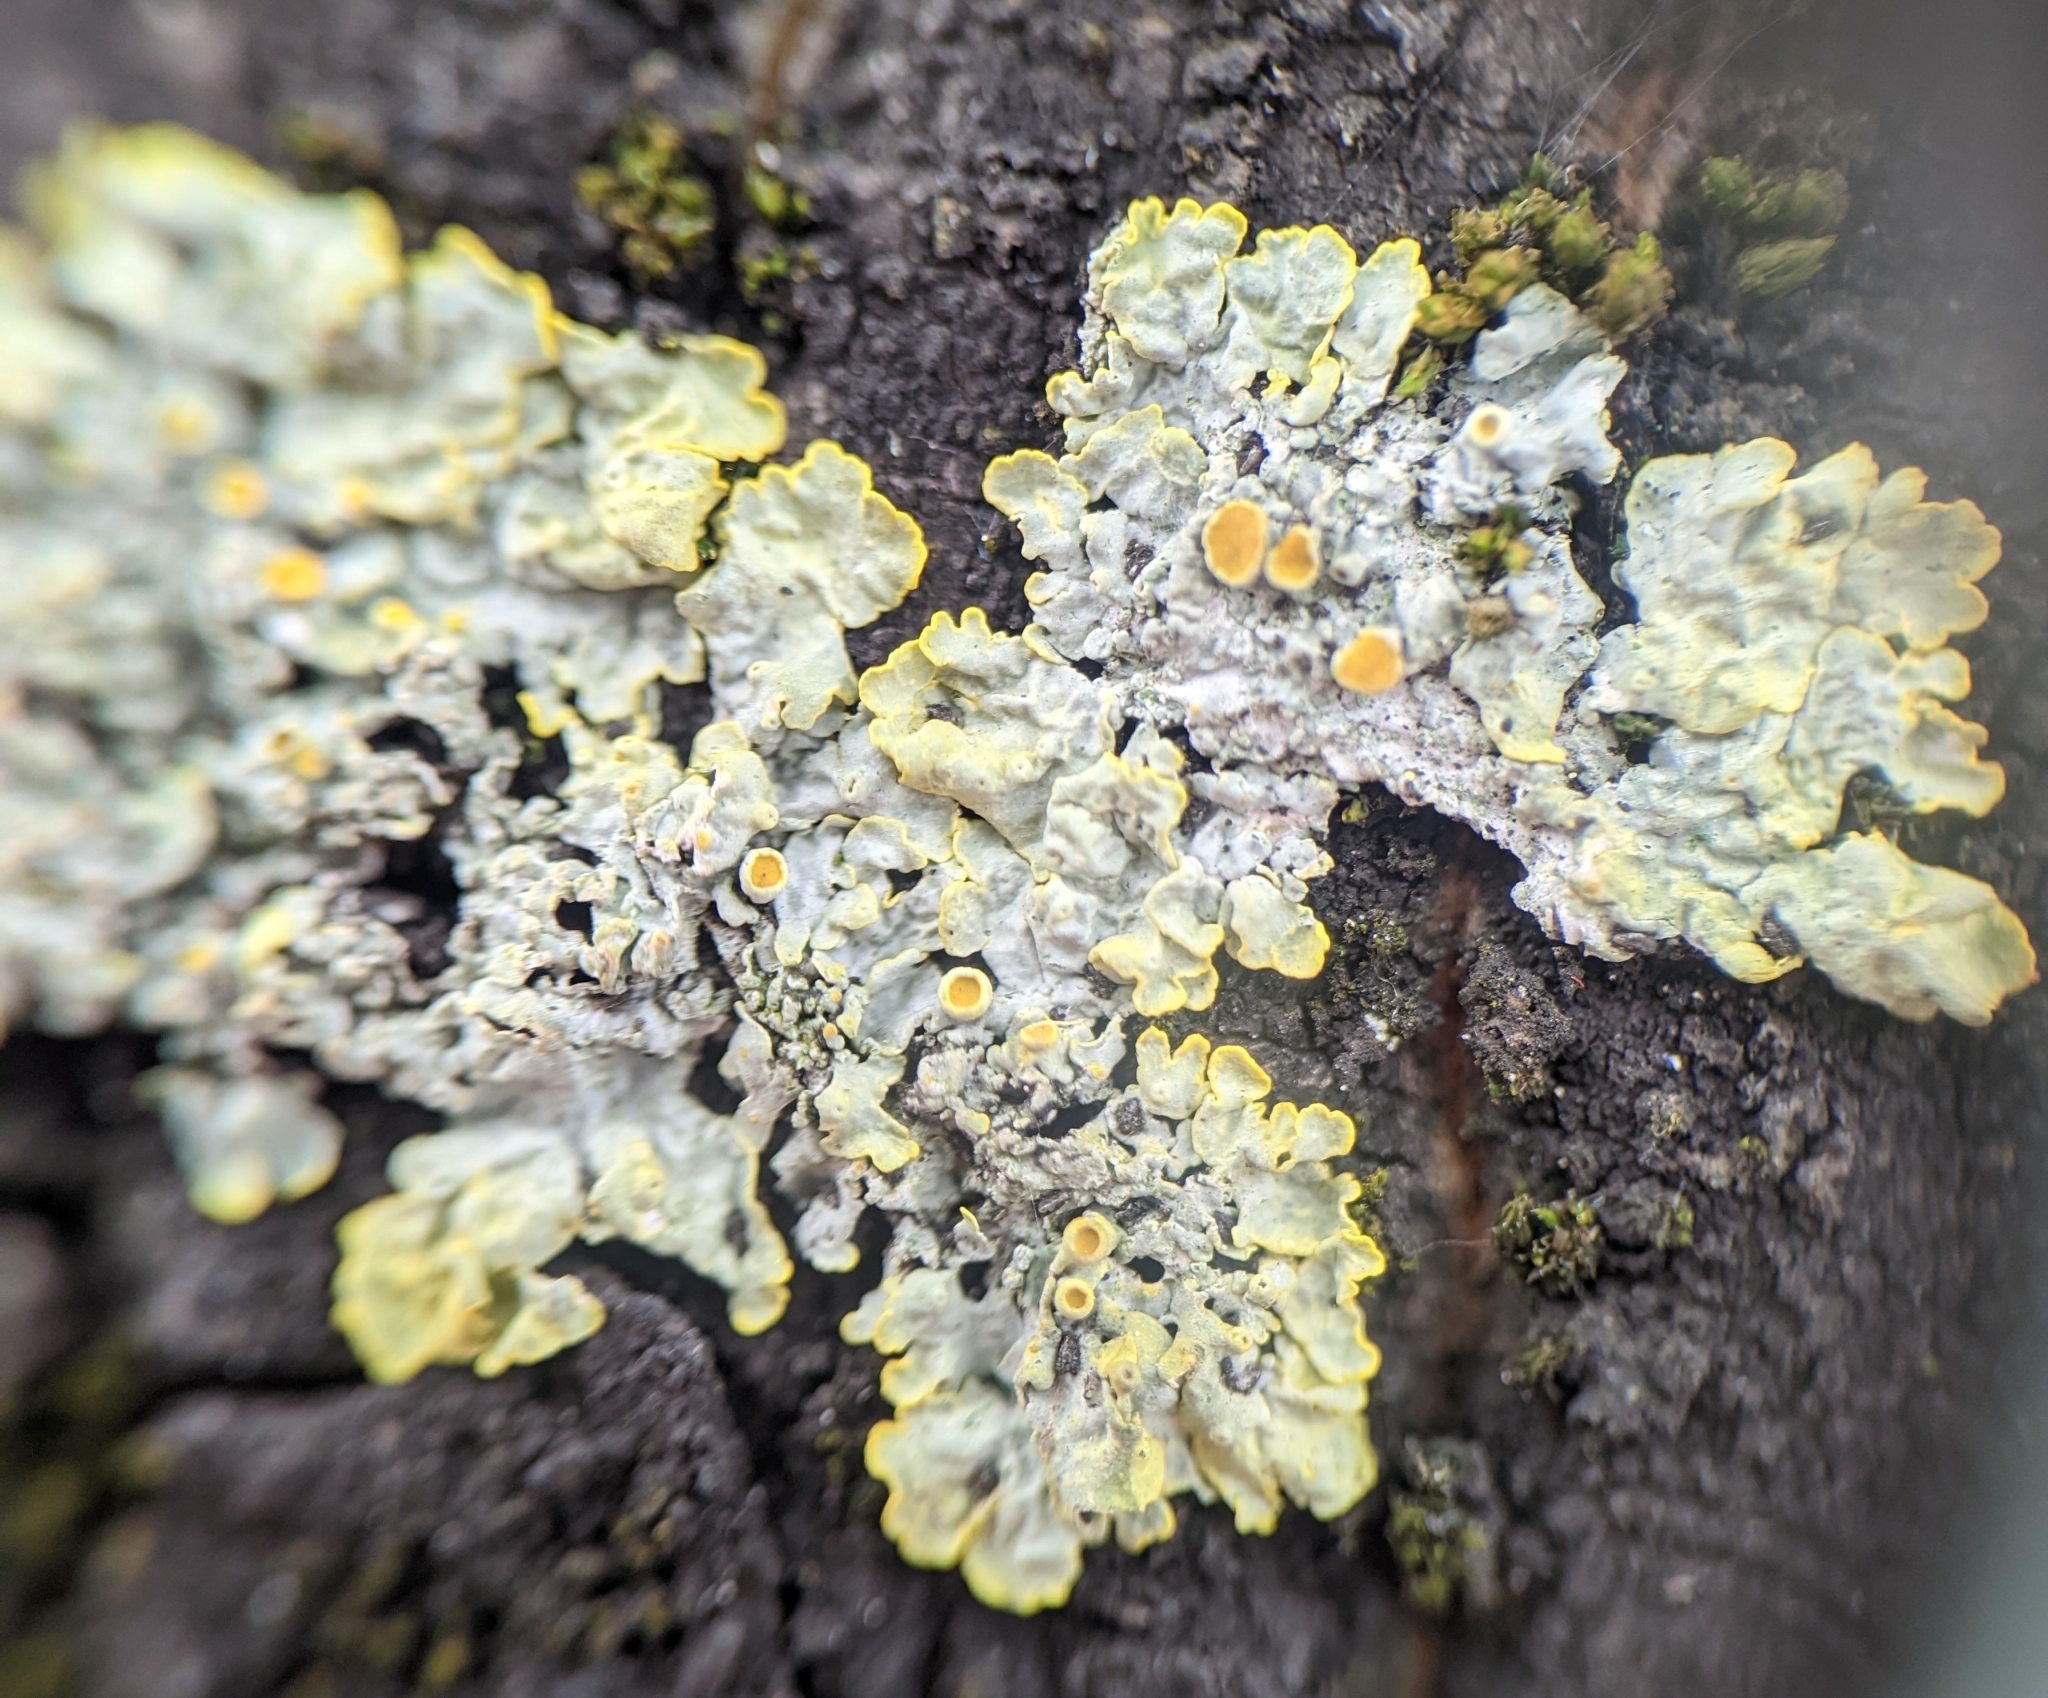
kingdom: Fungi
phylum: Ascomycota
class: Lecanoromycetes
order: Teloschistales
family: Teloschistaceae
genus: Xanthoria
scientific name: Xanthoria parietina
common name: Common orange lichen
